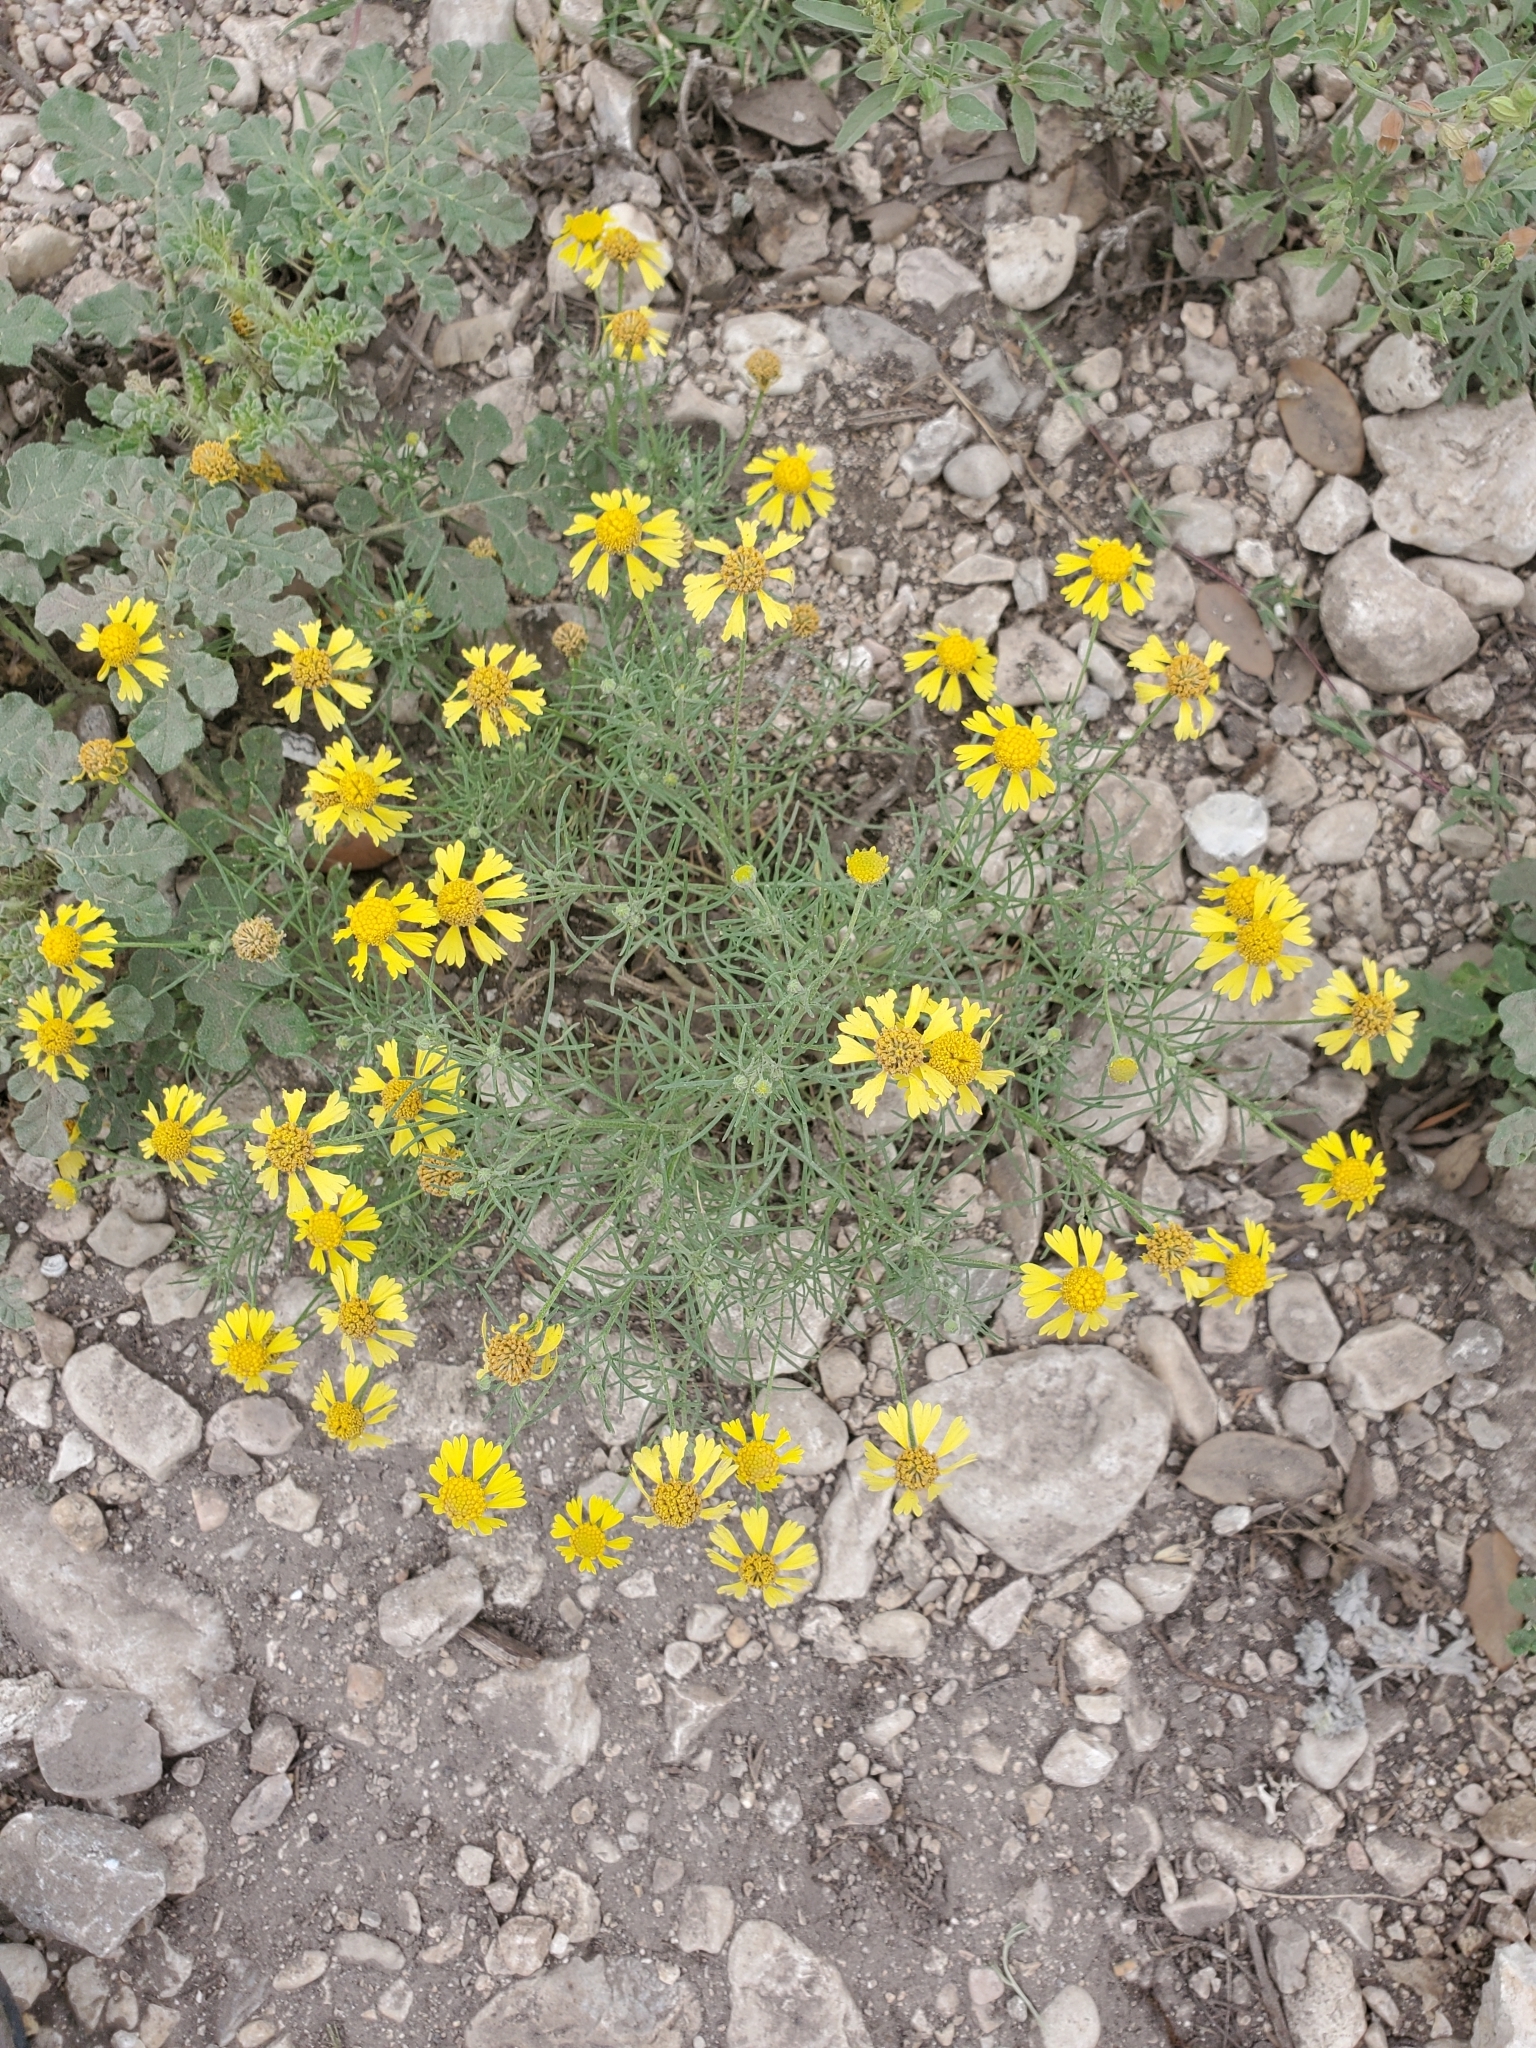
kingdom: Plantae
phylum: Tracheophyta
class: Magnoliopsida
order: Asterales
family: Asteraceae
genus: Hymenoxys
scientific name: Hymenoxys odorata
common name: Bitter rubberweed
